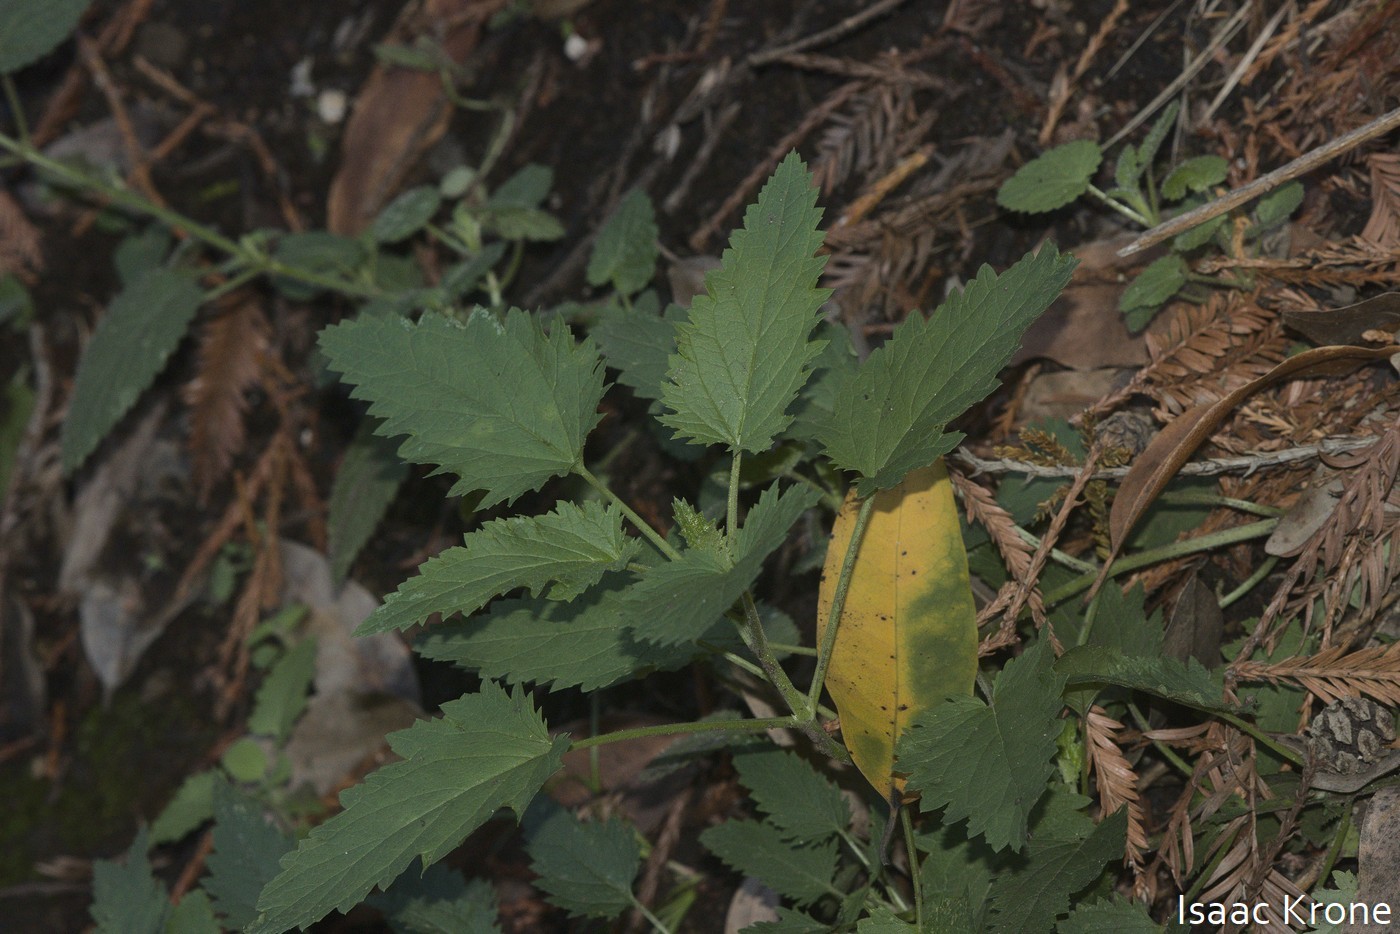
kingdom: Plantae
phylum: Tracheophyta
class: Magnoliopsida
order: Lamiales
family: Scrophulariaceae
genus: Scrophularia
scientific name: Scrophularia californica
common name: California figwort
